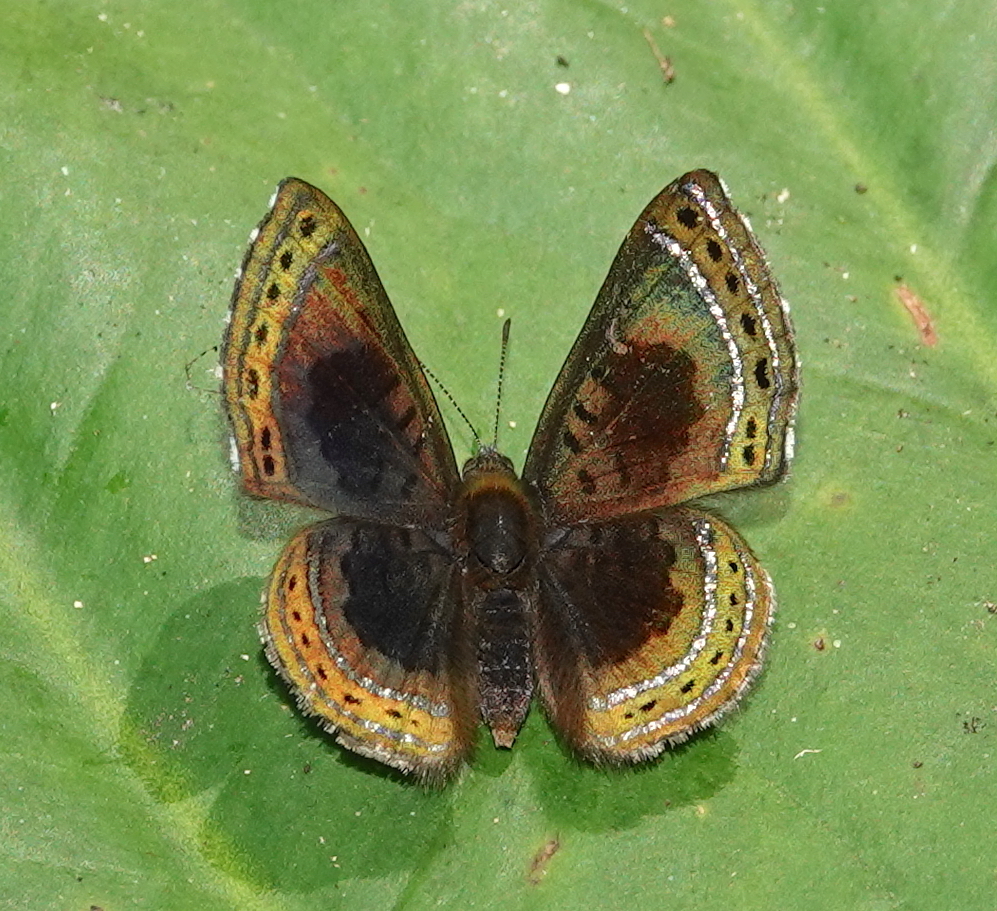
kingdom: Animalia
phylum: Arthropoda
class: Insecta
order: Lepidoptera
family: Riodinidae
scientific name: Riodinidae
